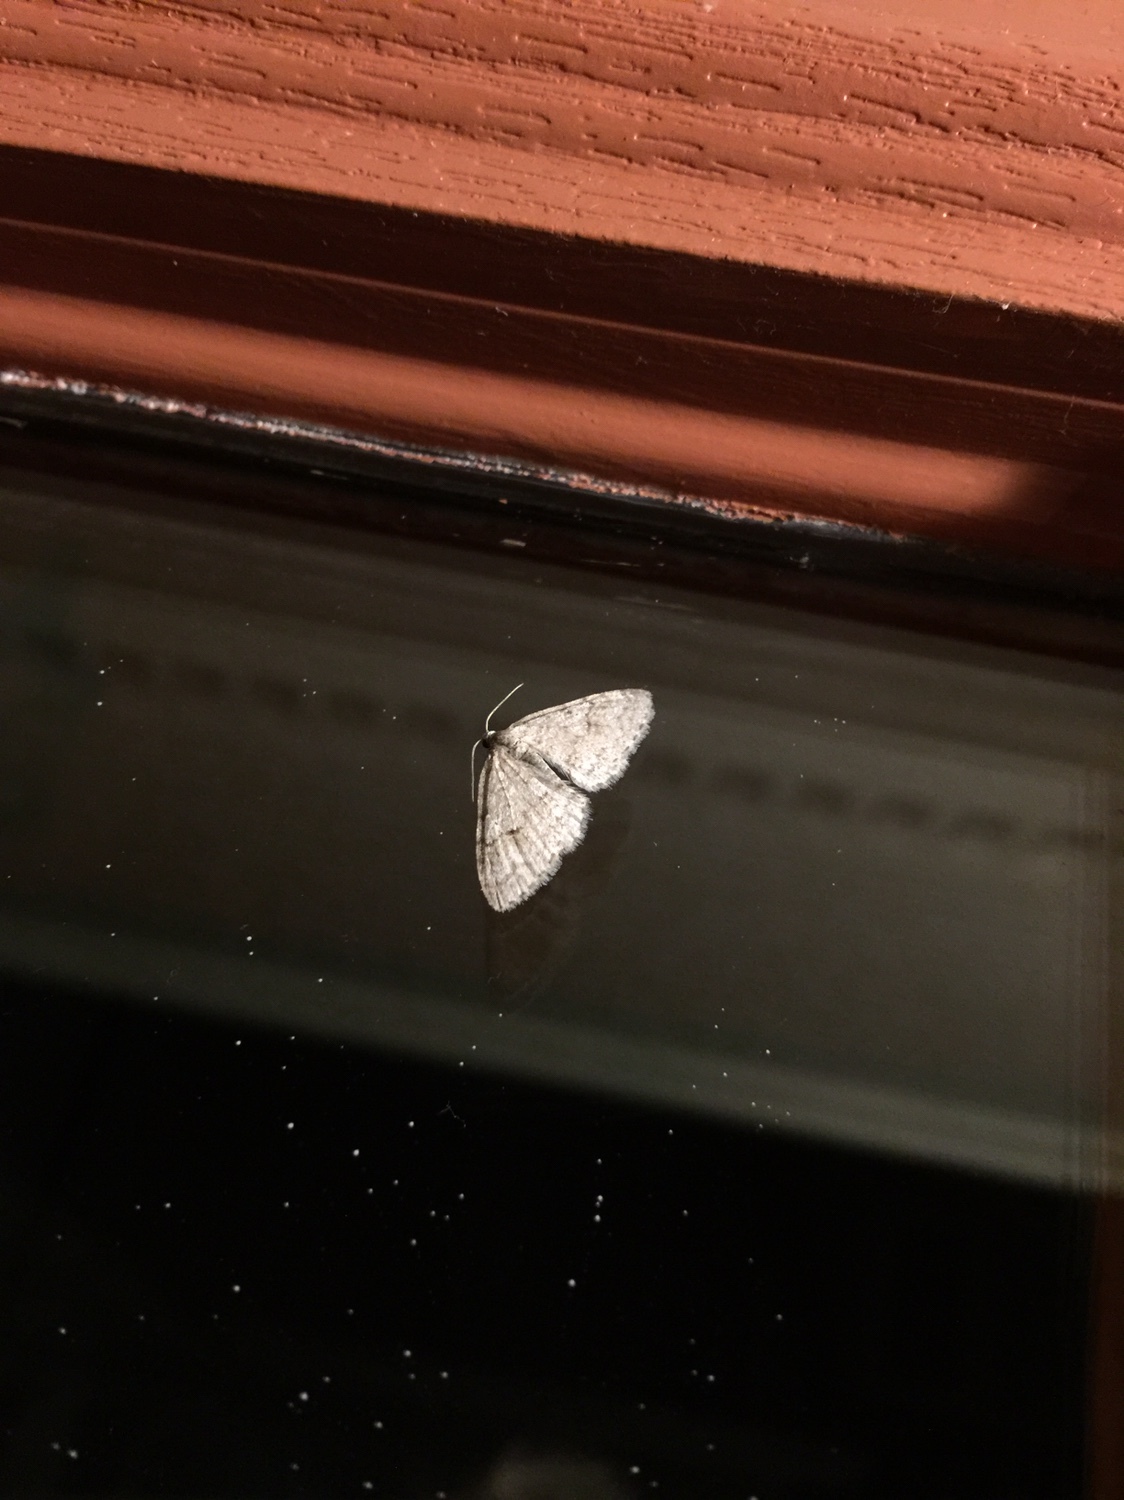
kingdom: Animalia
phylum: Arthropoda
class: Insecta
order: Lepidoptera
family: Geometridae
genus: Venusia
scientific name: Venusia comptaria
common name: Brown-shaded carpet
